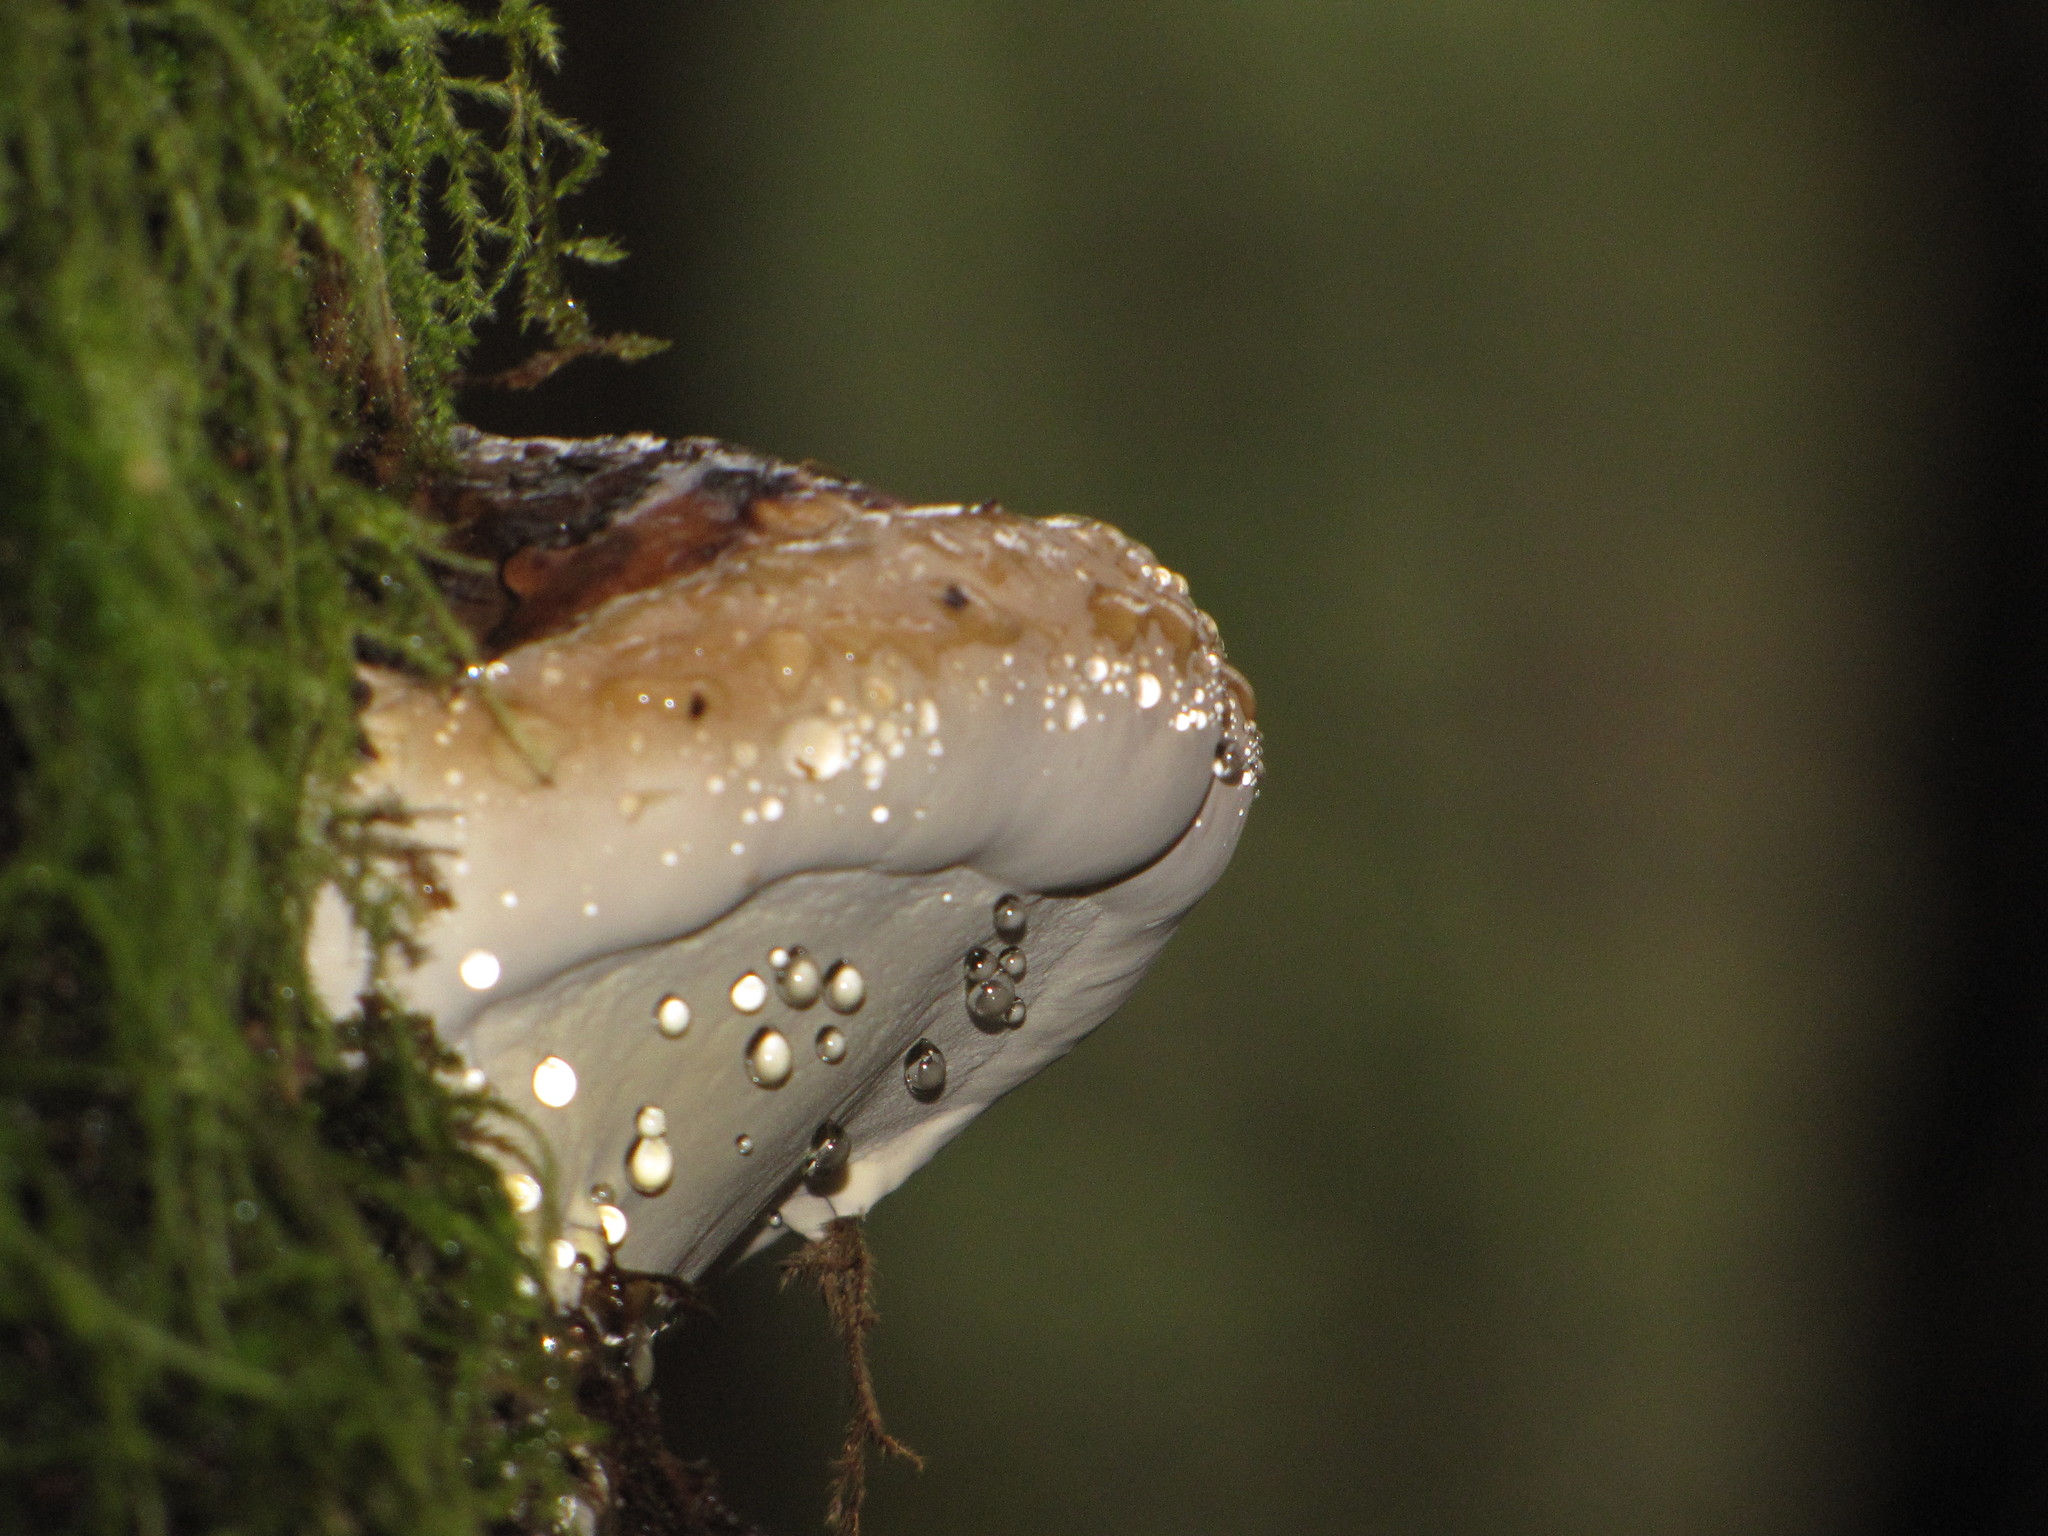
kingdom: Fungi
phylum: Basidiomycota
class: Agaricomycetes
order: Polyporales
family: Fomitopsidaceae
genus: Fomitopsis
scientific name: Fomitopsis mounceae
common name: Northern red belt
